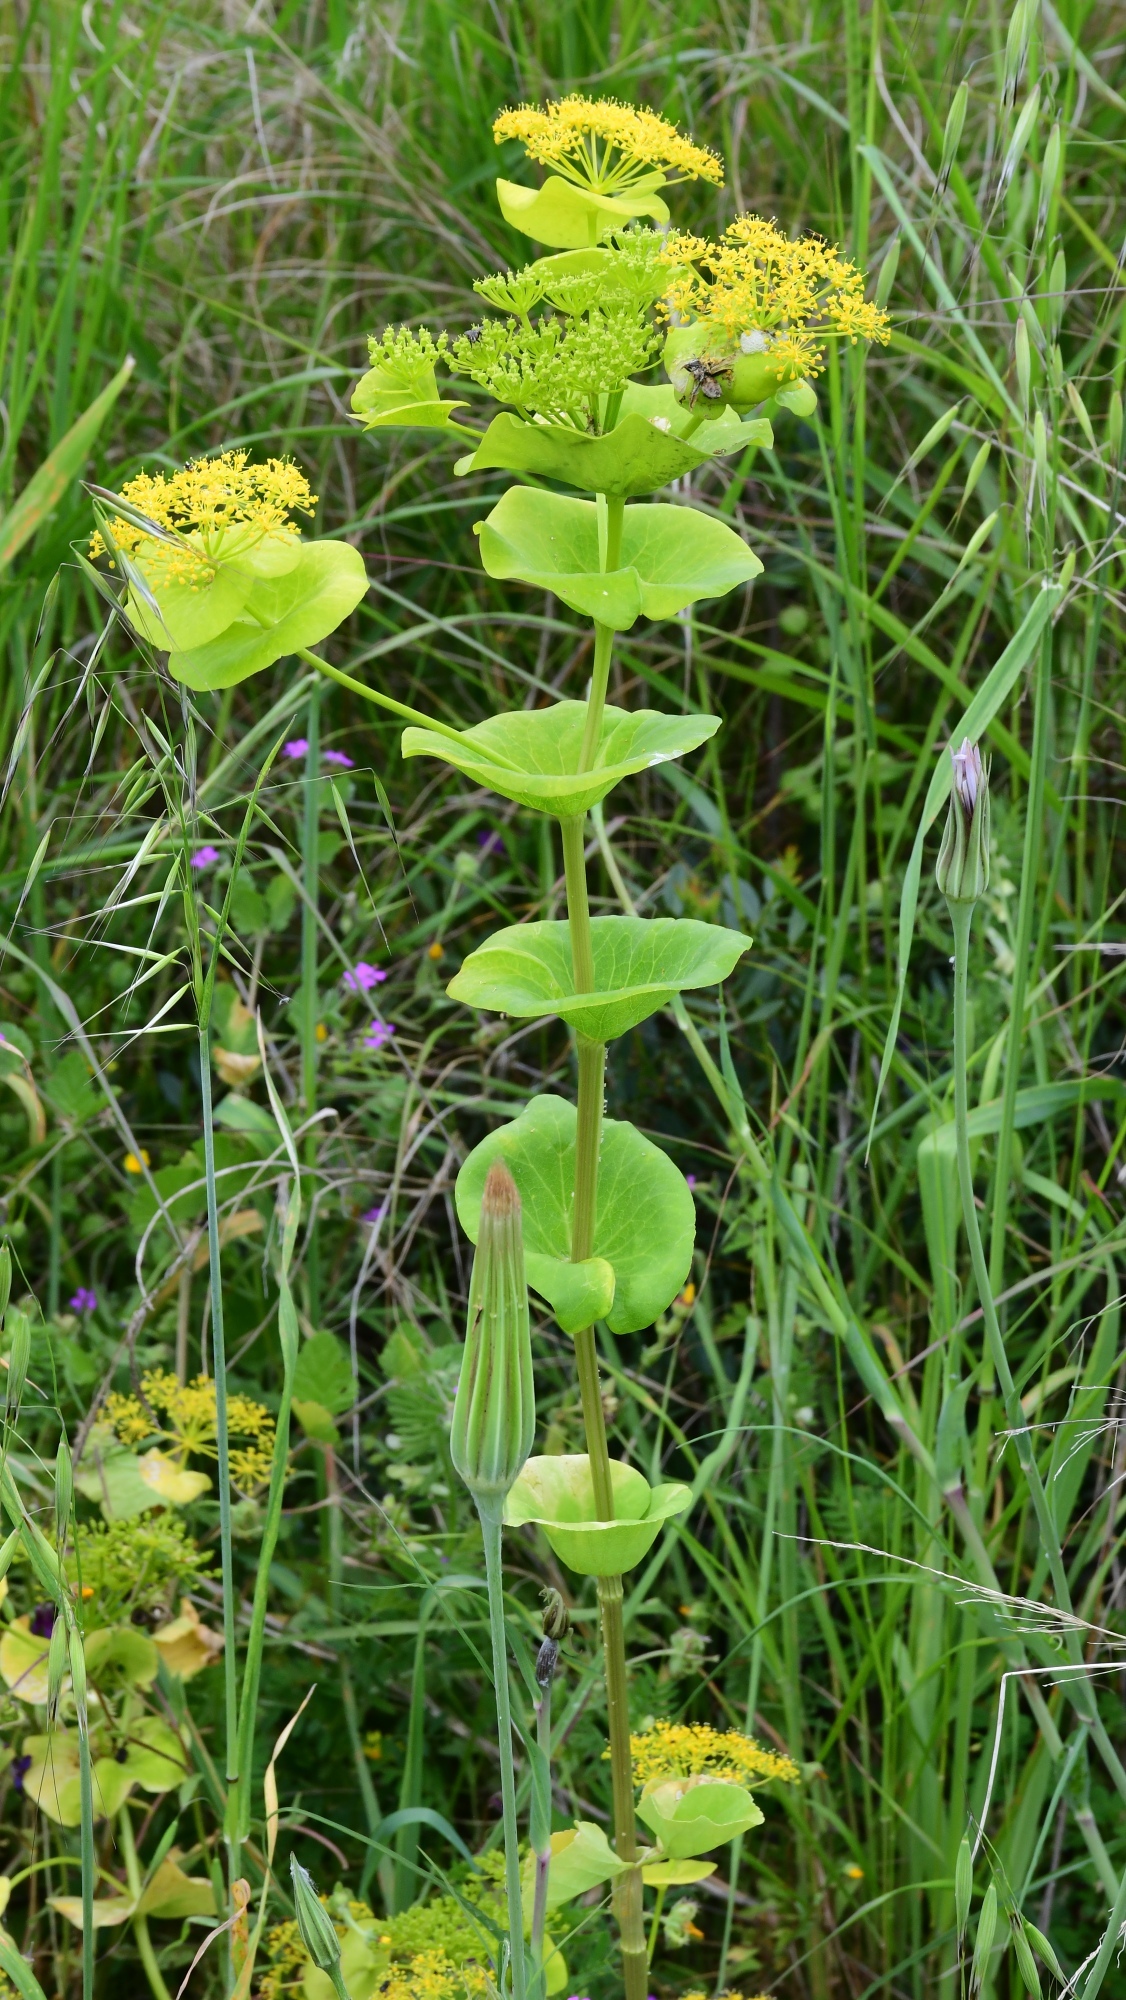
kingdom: Plantae
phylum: Tracheophyta
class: Magnoliopsida
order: Apiales
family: Apiaceae
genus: Smyrnium
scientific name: Smyrnium perfoliatum
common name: Perfoliate alexanders
